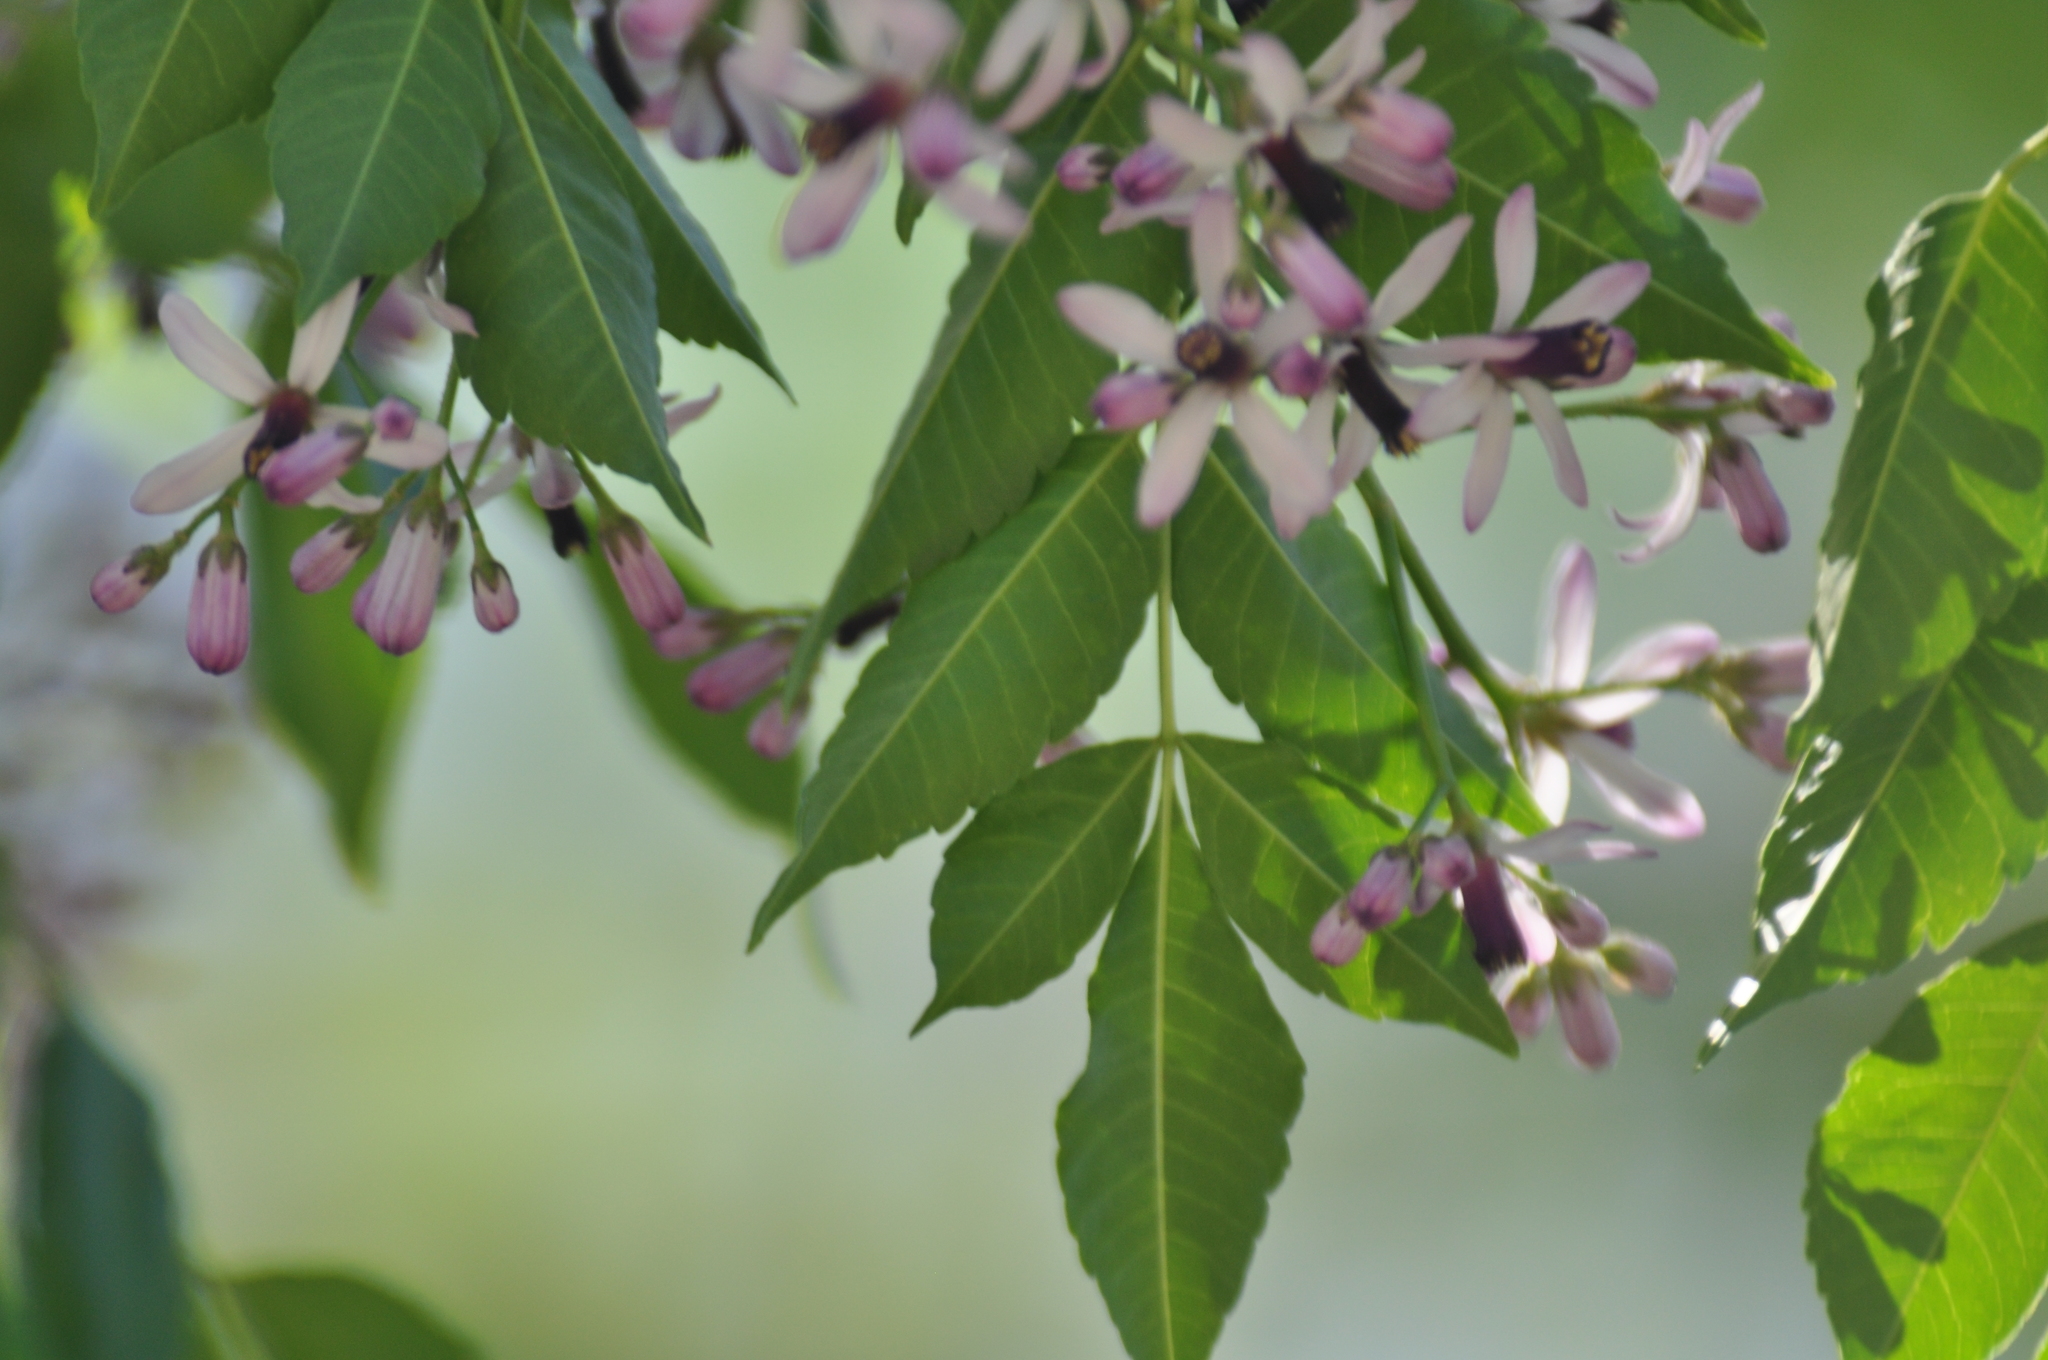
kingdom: Plantae
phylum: Tracheophyta
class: Magnoliopsida
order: Sapindales
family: Meliaceae
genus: Melia
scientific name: Melia azedarach
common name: Chinaberrytree
